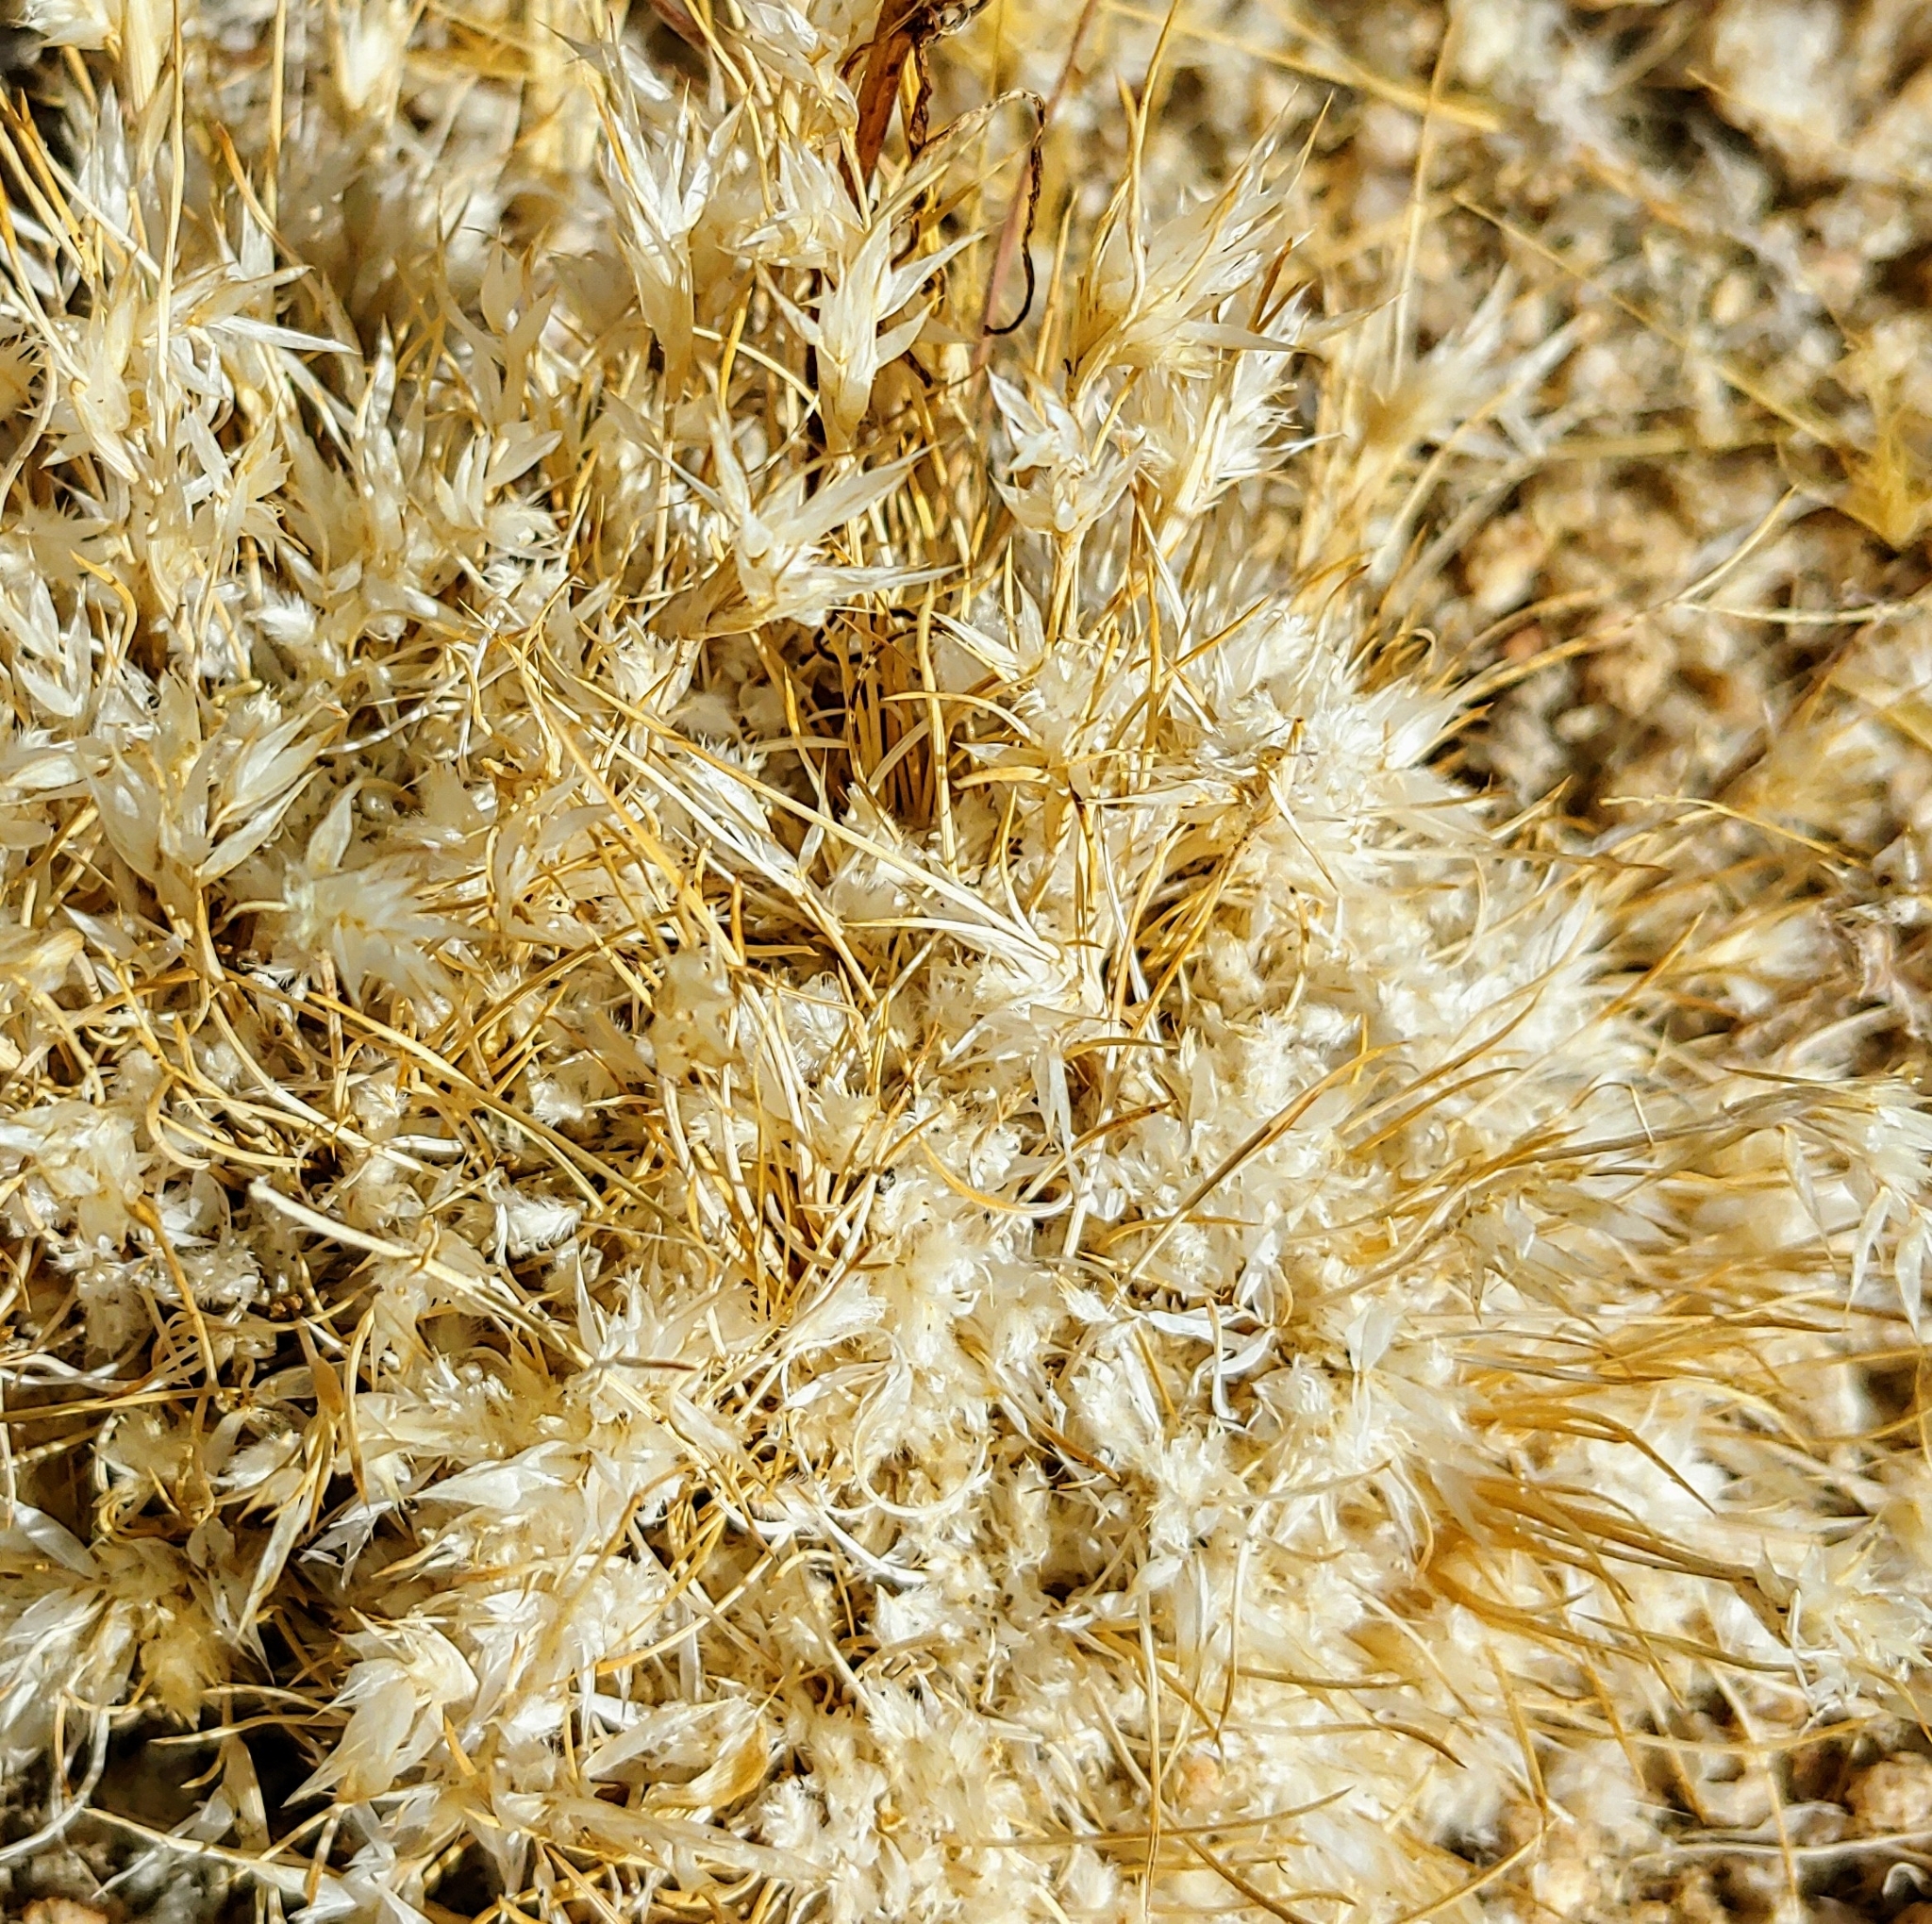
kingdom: Plantae
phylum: Tracheophyta
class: Liliopsida
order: Poales
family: Poaceae
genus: Dasyochloa
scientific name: Dasyochloa pulchella
